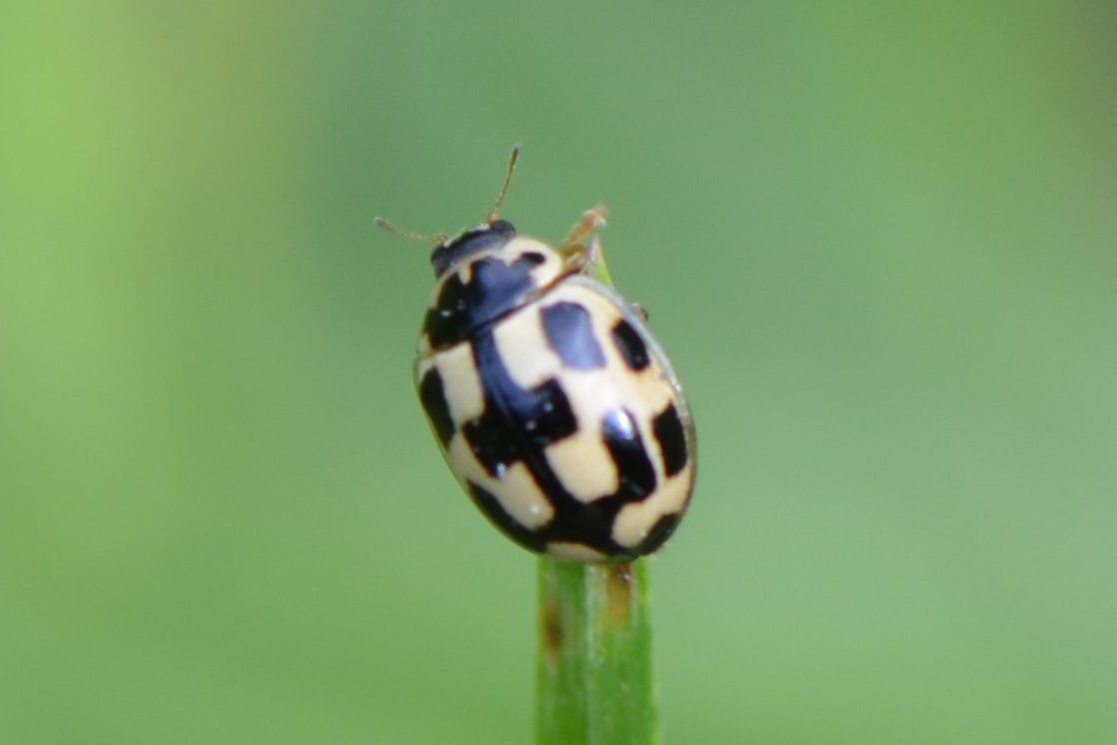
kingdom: Animalia
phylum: Arthropoda
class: Insecta
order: Coleoptera
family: Coccinellidae
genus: Propylaea
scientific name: Propylaea quatuordecimpunctata
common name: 14-spotted ladybird beetle
